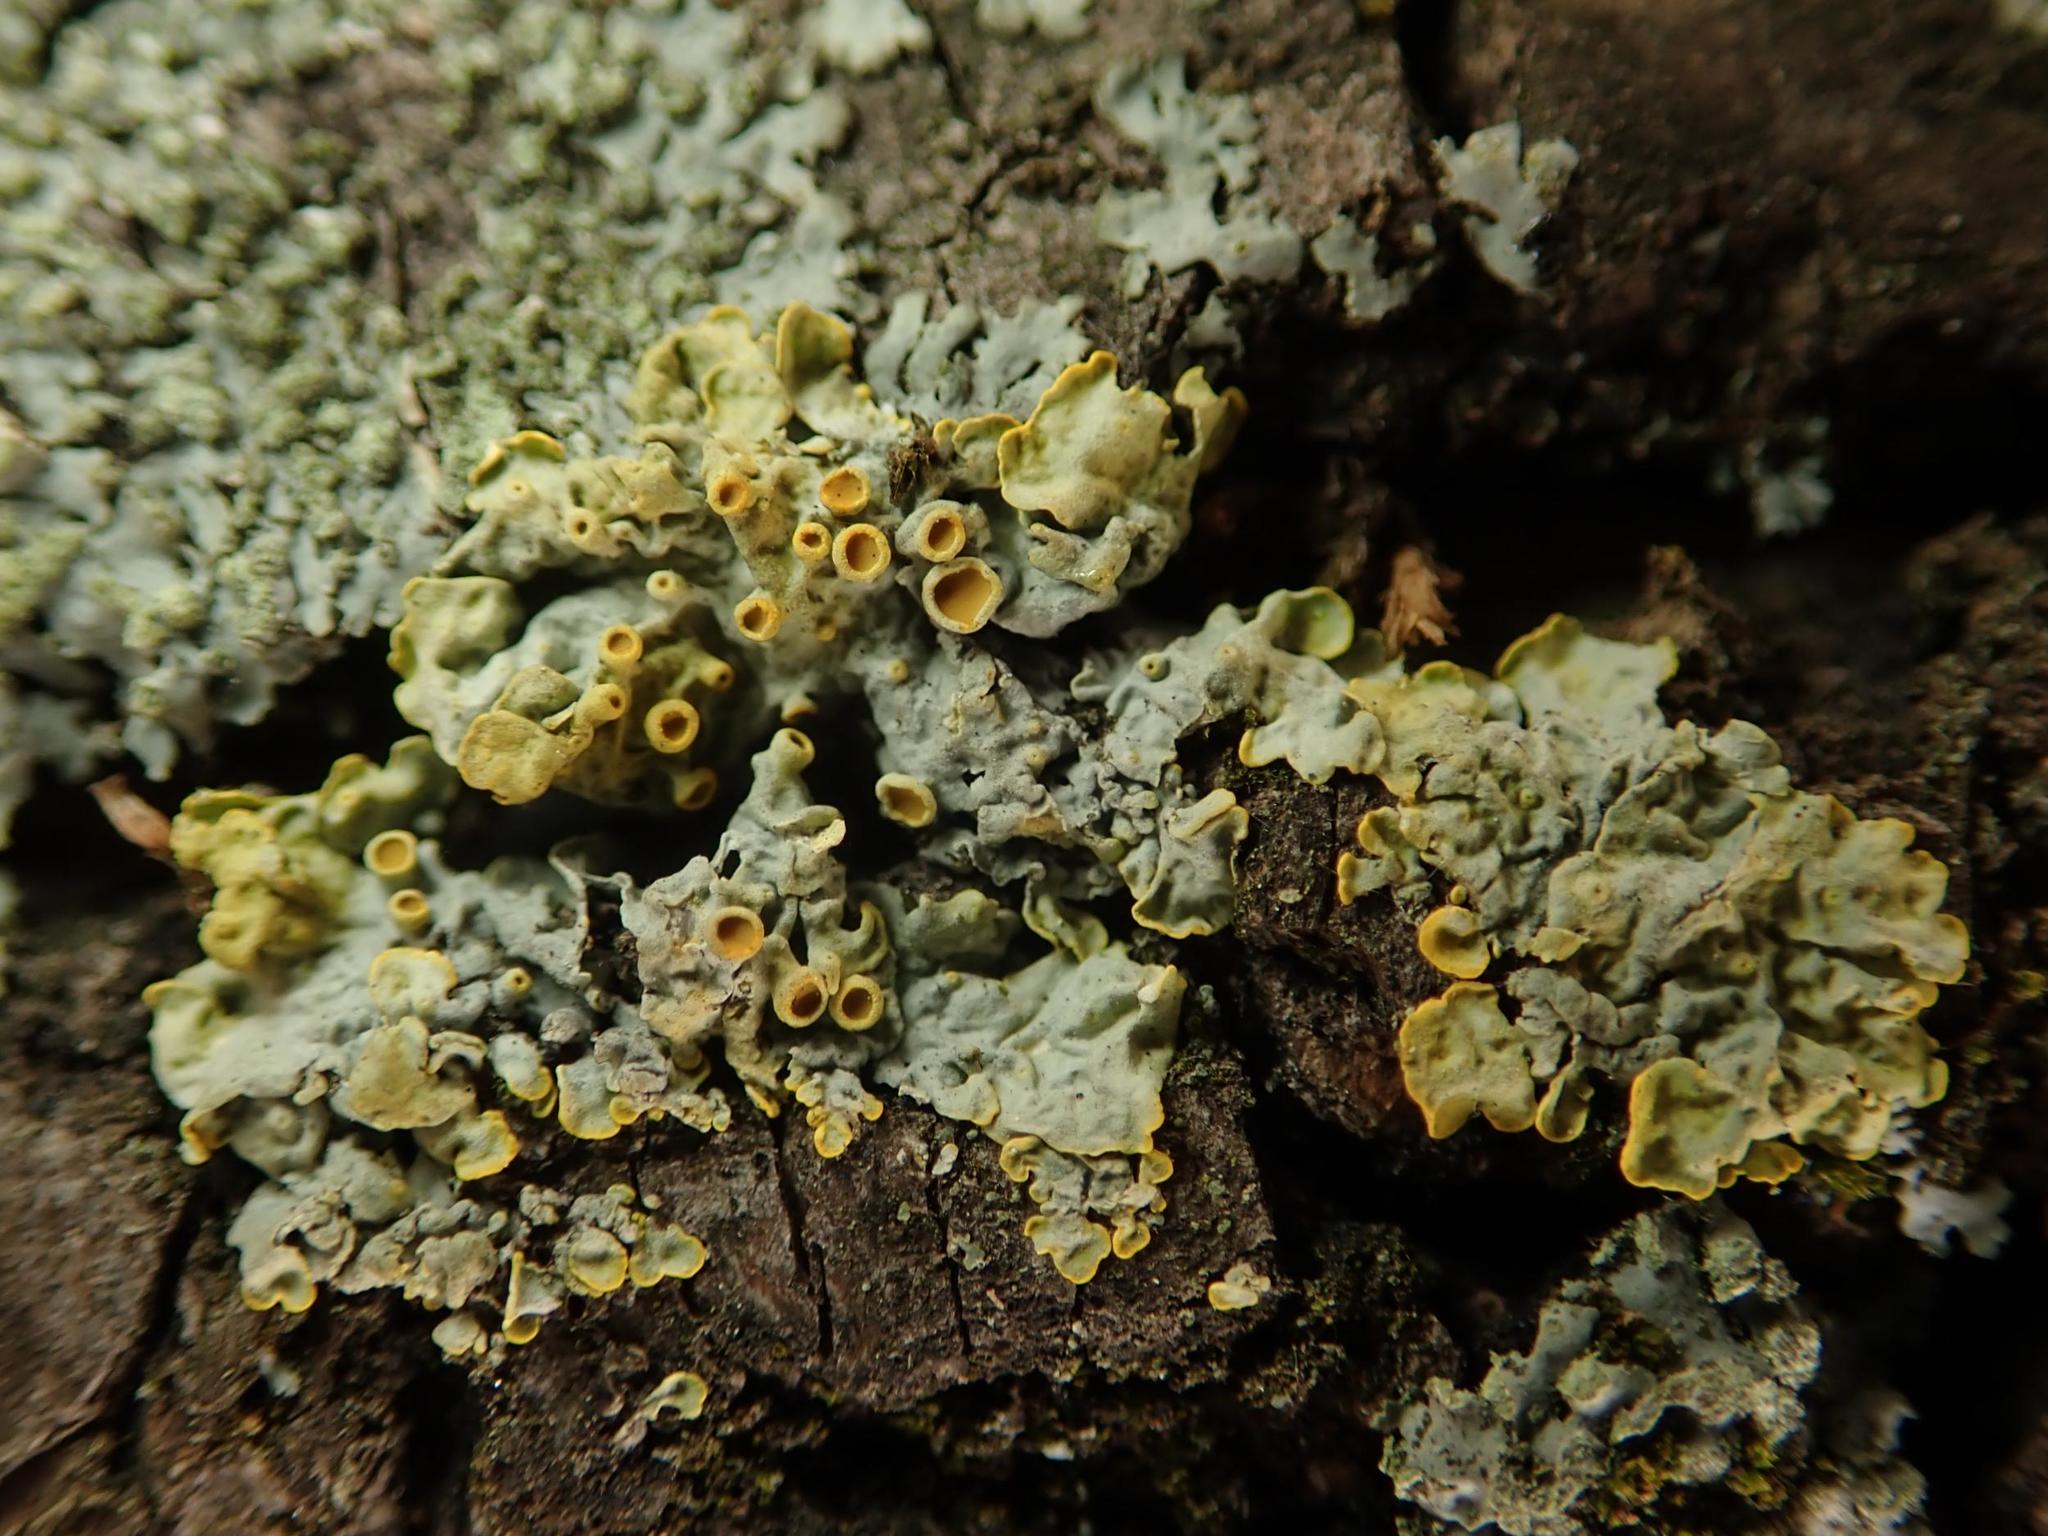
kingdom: Fungi
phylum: Ascomycota
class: Lecanoromycetes
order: Teloschistales
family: Teloschistaceae
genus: Xanthoria
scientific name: Xanthoria parietina
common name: Common orange lichen
